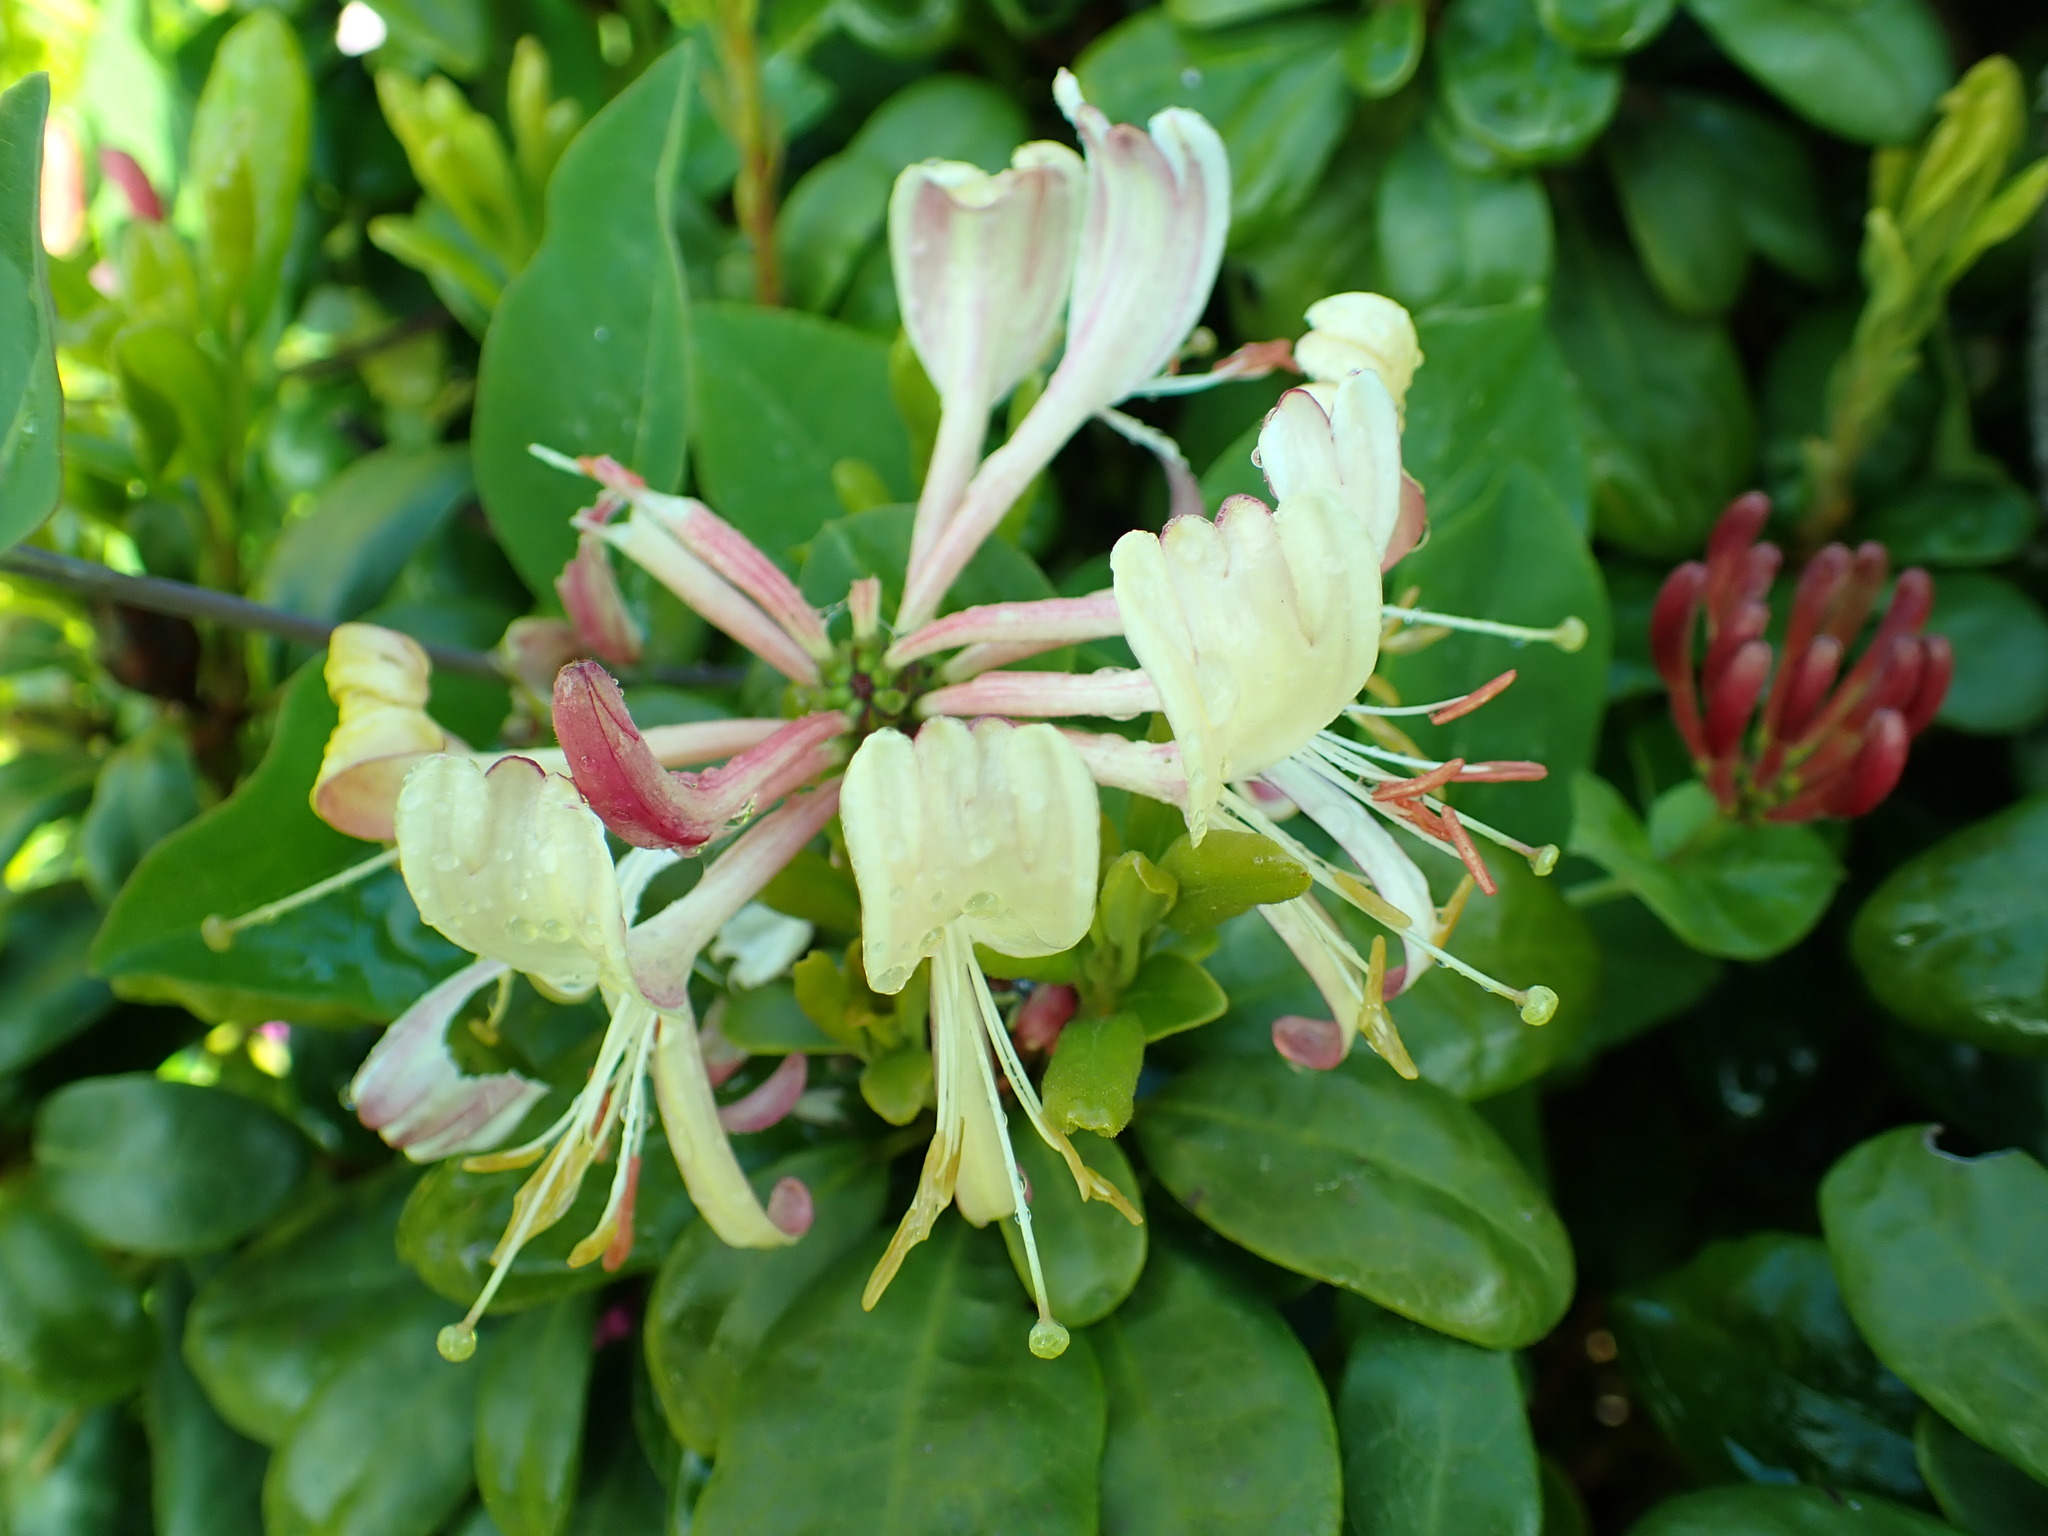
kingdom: Plantae
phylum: Tracheophyta
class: Magnoliopsida
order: Dipsacales
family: Caprifoliaceae
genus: Lonicera
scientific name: Lonicera periclymenum
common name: European honeysuckle
